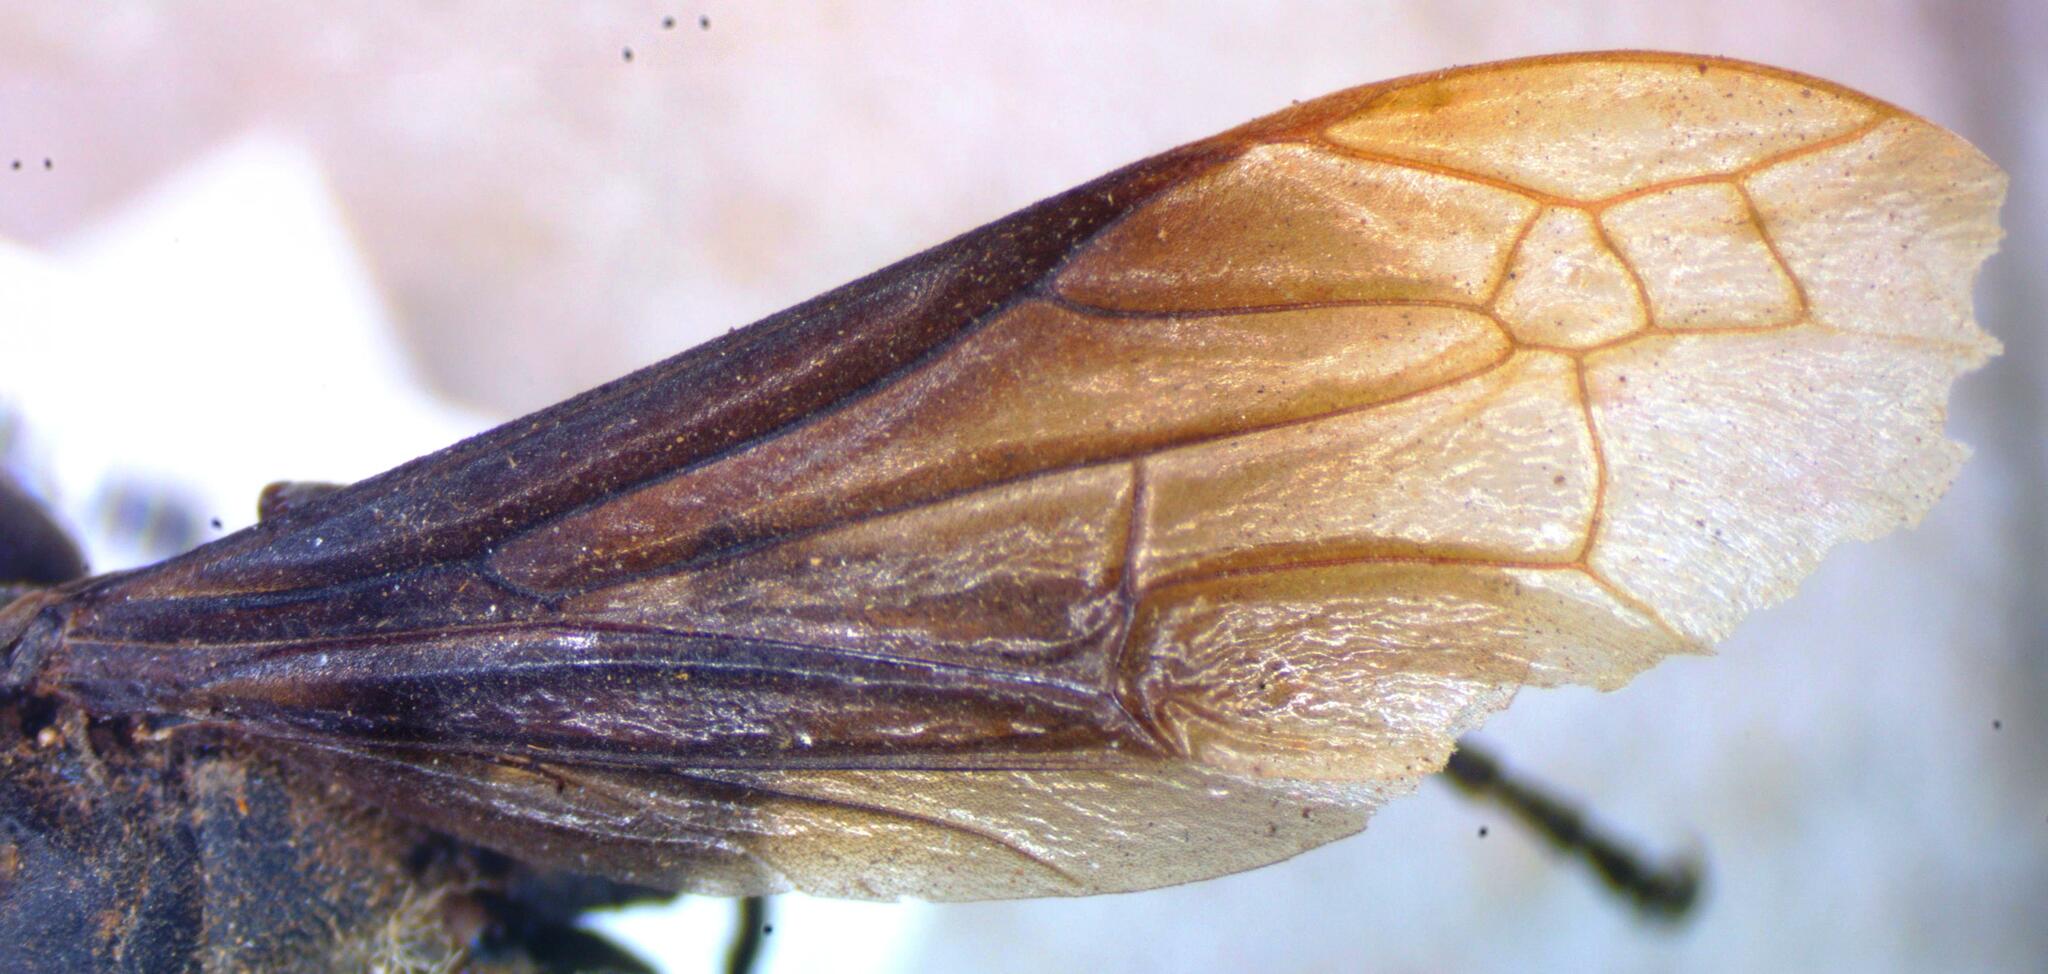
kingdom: Animalia
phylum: Arthropoda
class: Insecta
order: Hymenoptera
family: Eumenidae
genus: Polistes
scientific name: Polistes goeldii
